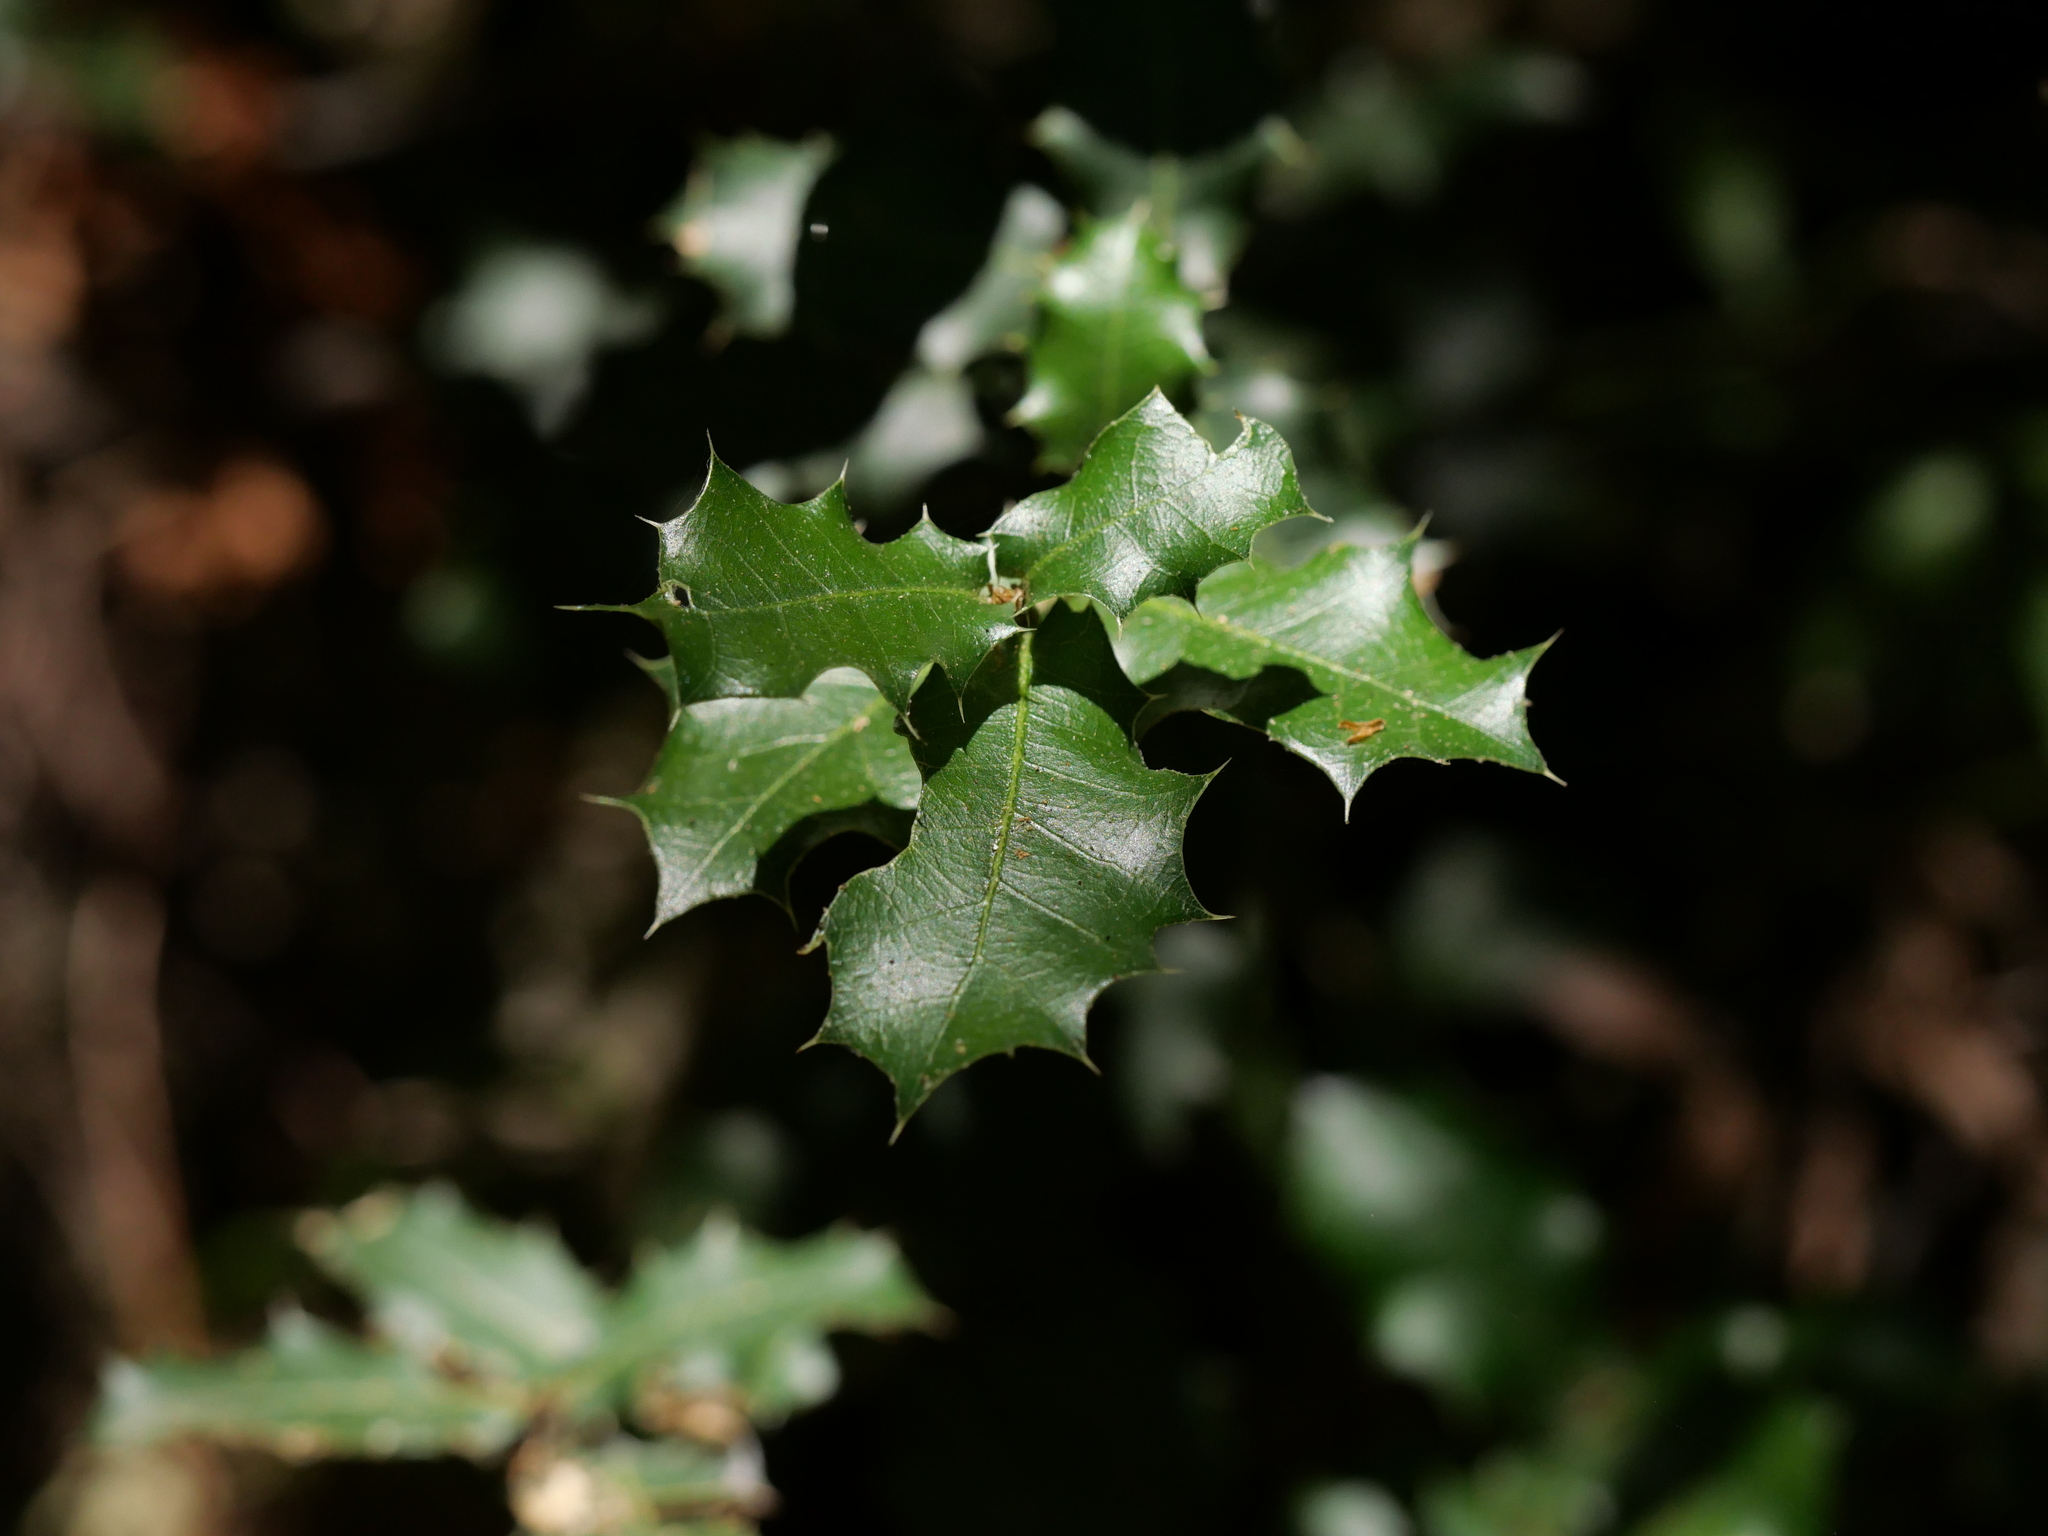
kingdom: Plantae
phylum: Tracheophyta
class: Magnoliopsida
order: Fagales
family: Fagaceae
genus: Quercus
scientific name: Quercus coccifera
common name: Kermes oak
